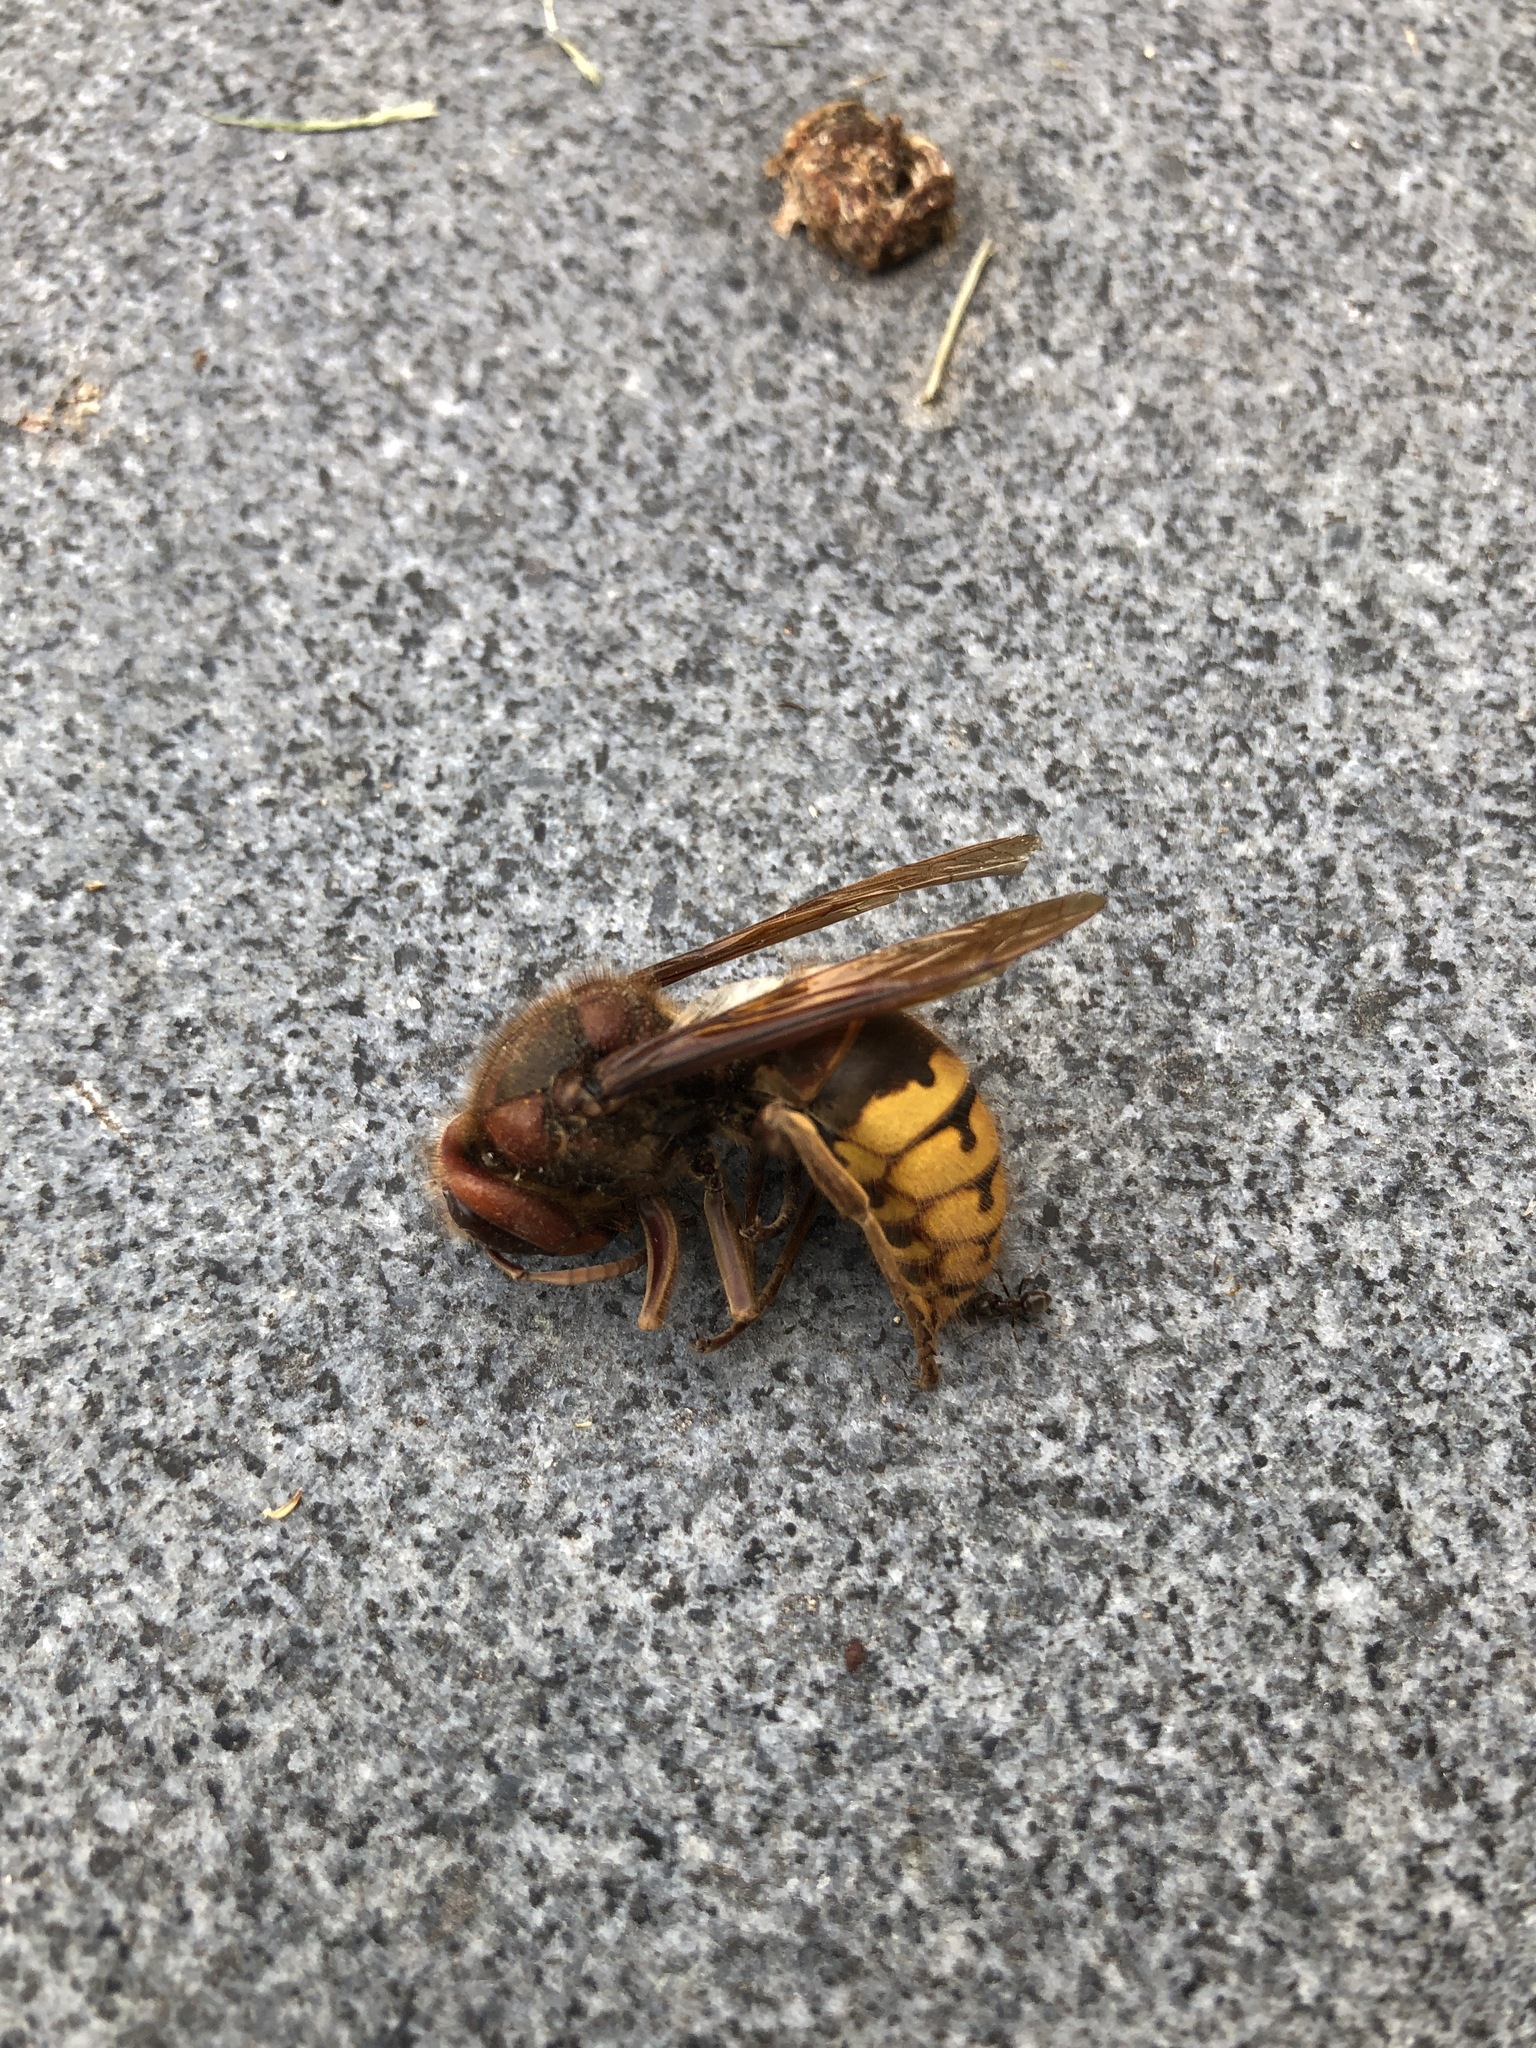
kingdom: Animalia
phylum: Arthropoda
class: Insecta
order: Hymenoptera
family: Vespidae
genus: Vespa
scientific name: Vespa crabro
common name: Hornet
